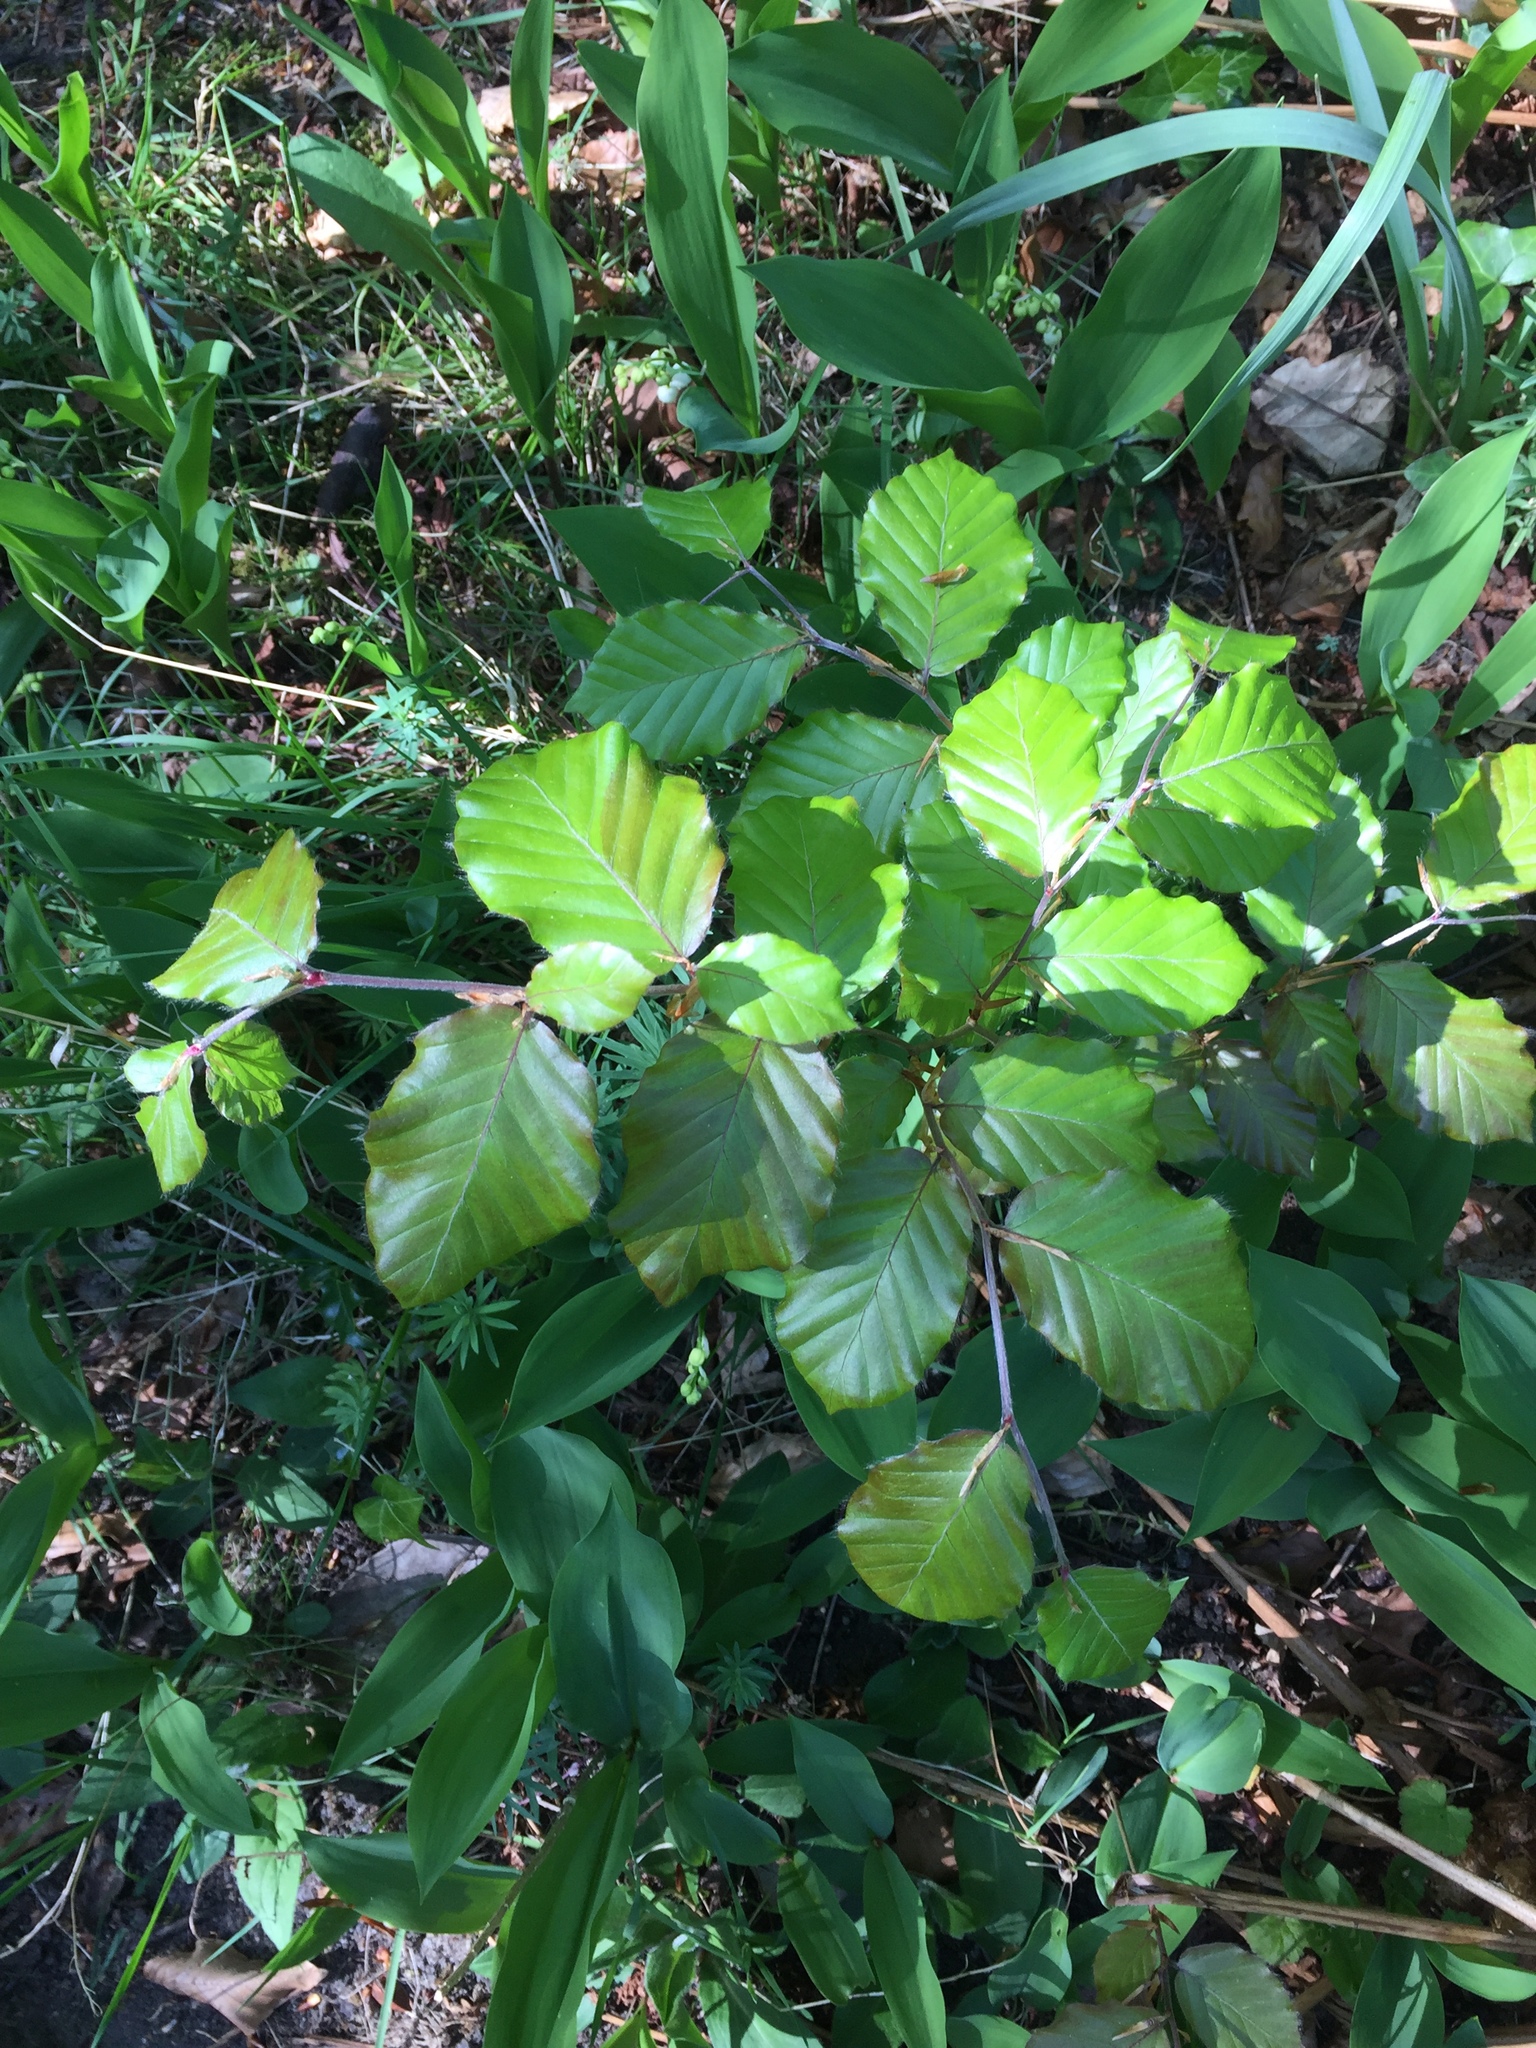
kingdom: Plantae
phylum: Tracheophyta
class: Magnoliopsida
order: Fagales
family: Fagaceae
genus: Fagus
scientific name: Fagus sylvatica
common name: Beech
